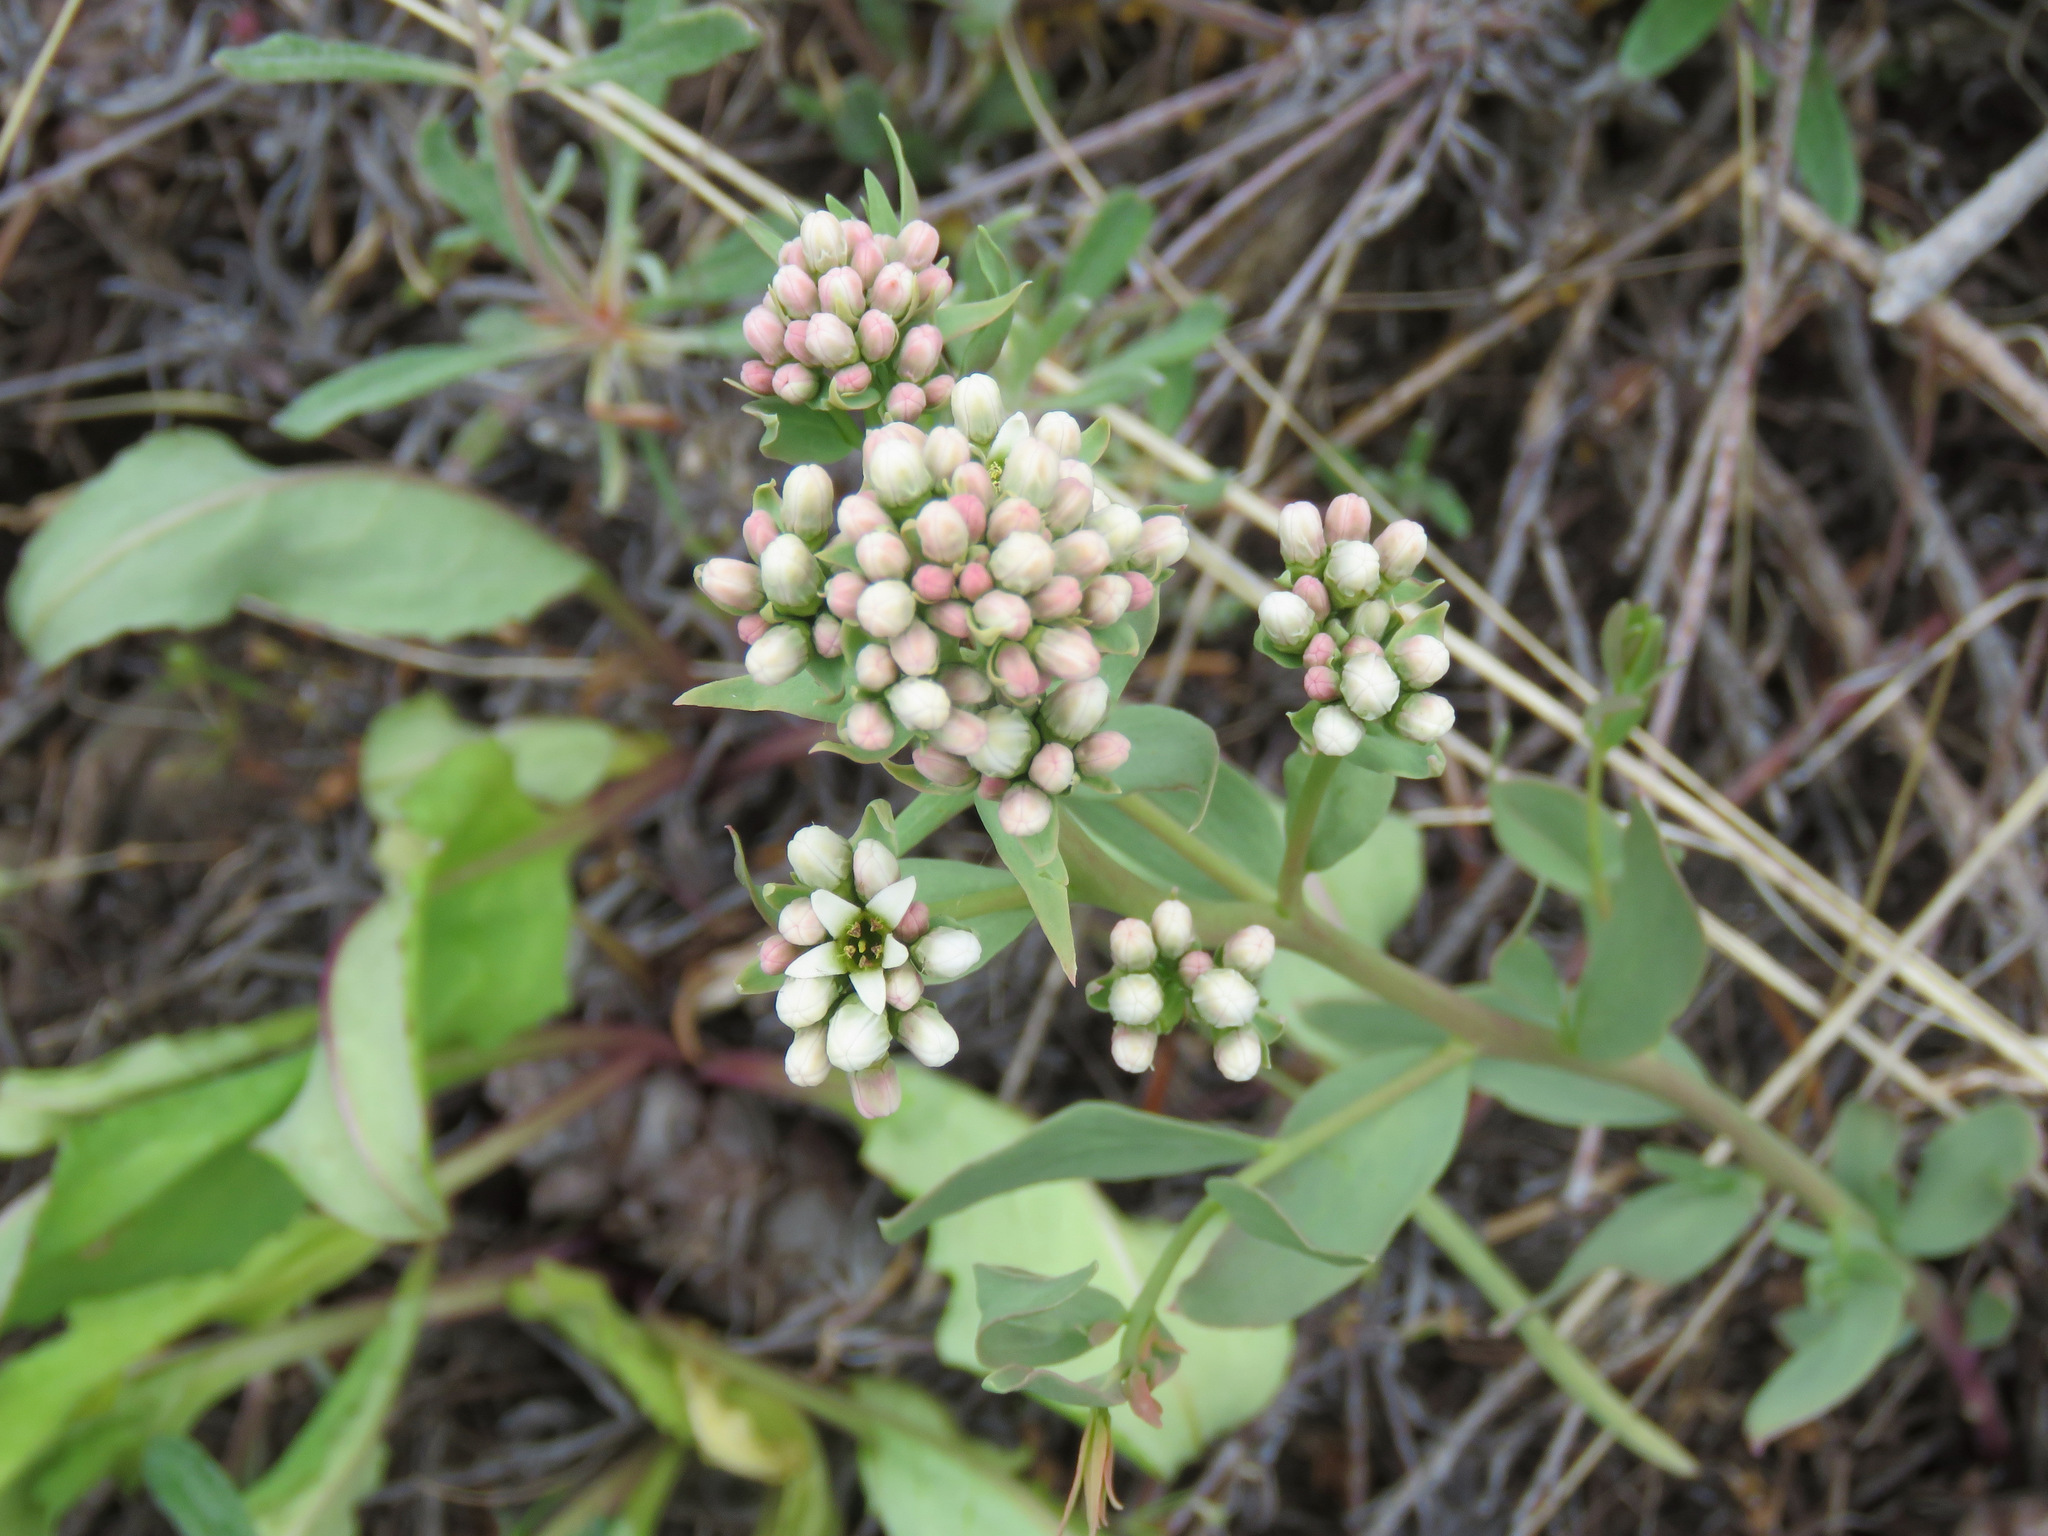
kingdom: Plantae
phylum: Tracheophyta
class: Magnoliopsida
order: Santalales
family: Comandraceae
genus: Comandra
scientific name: Comandra umbellata
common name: Bastard toadflax
